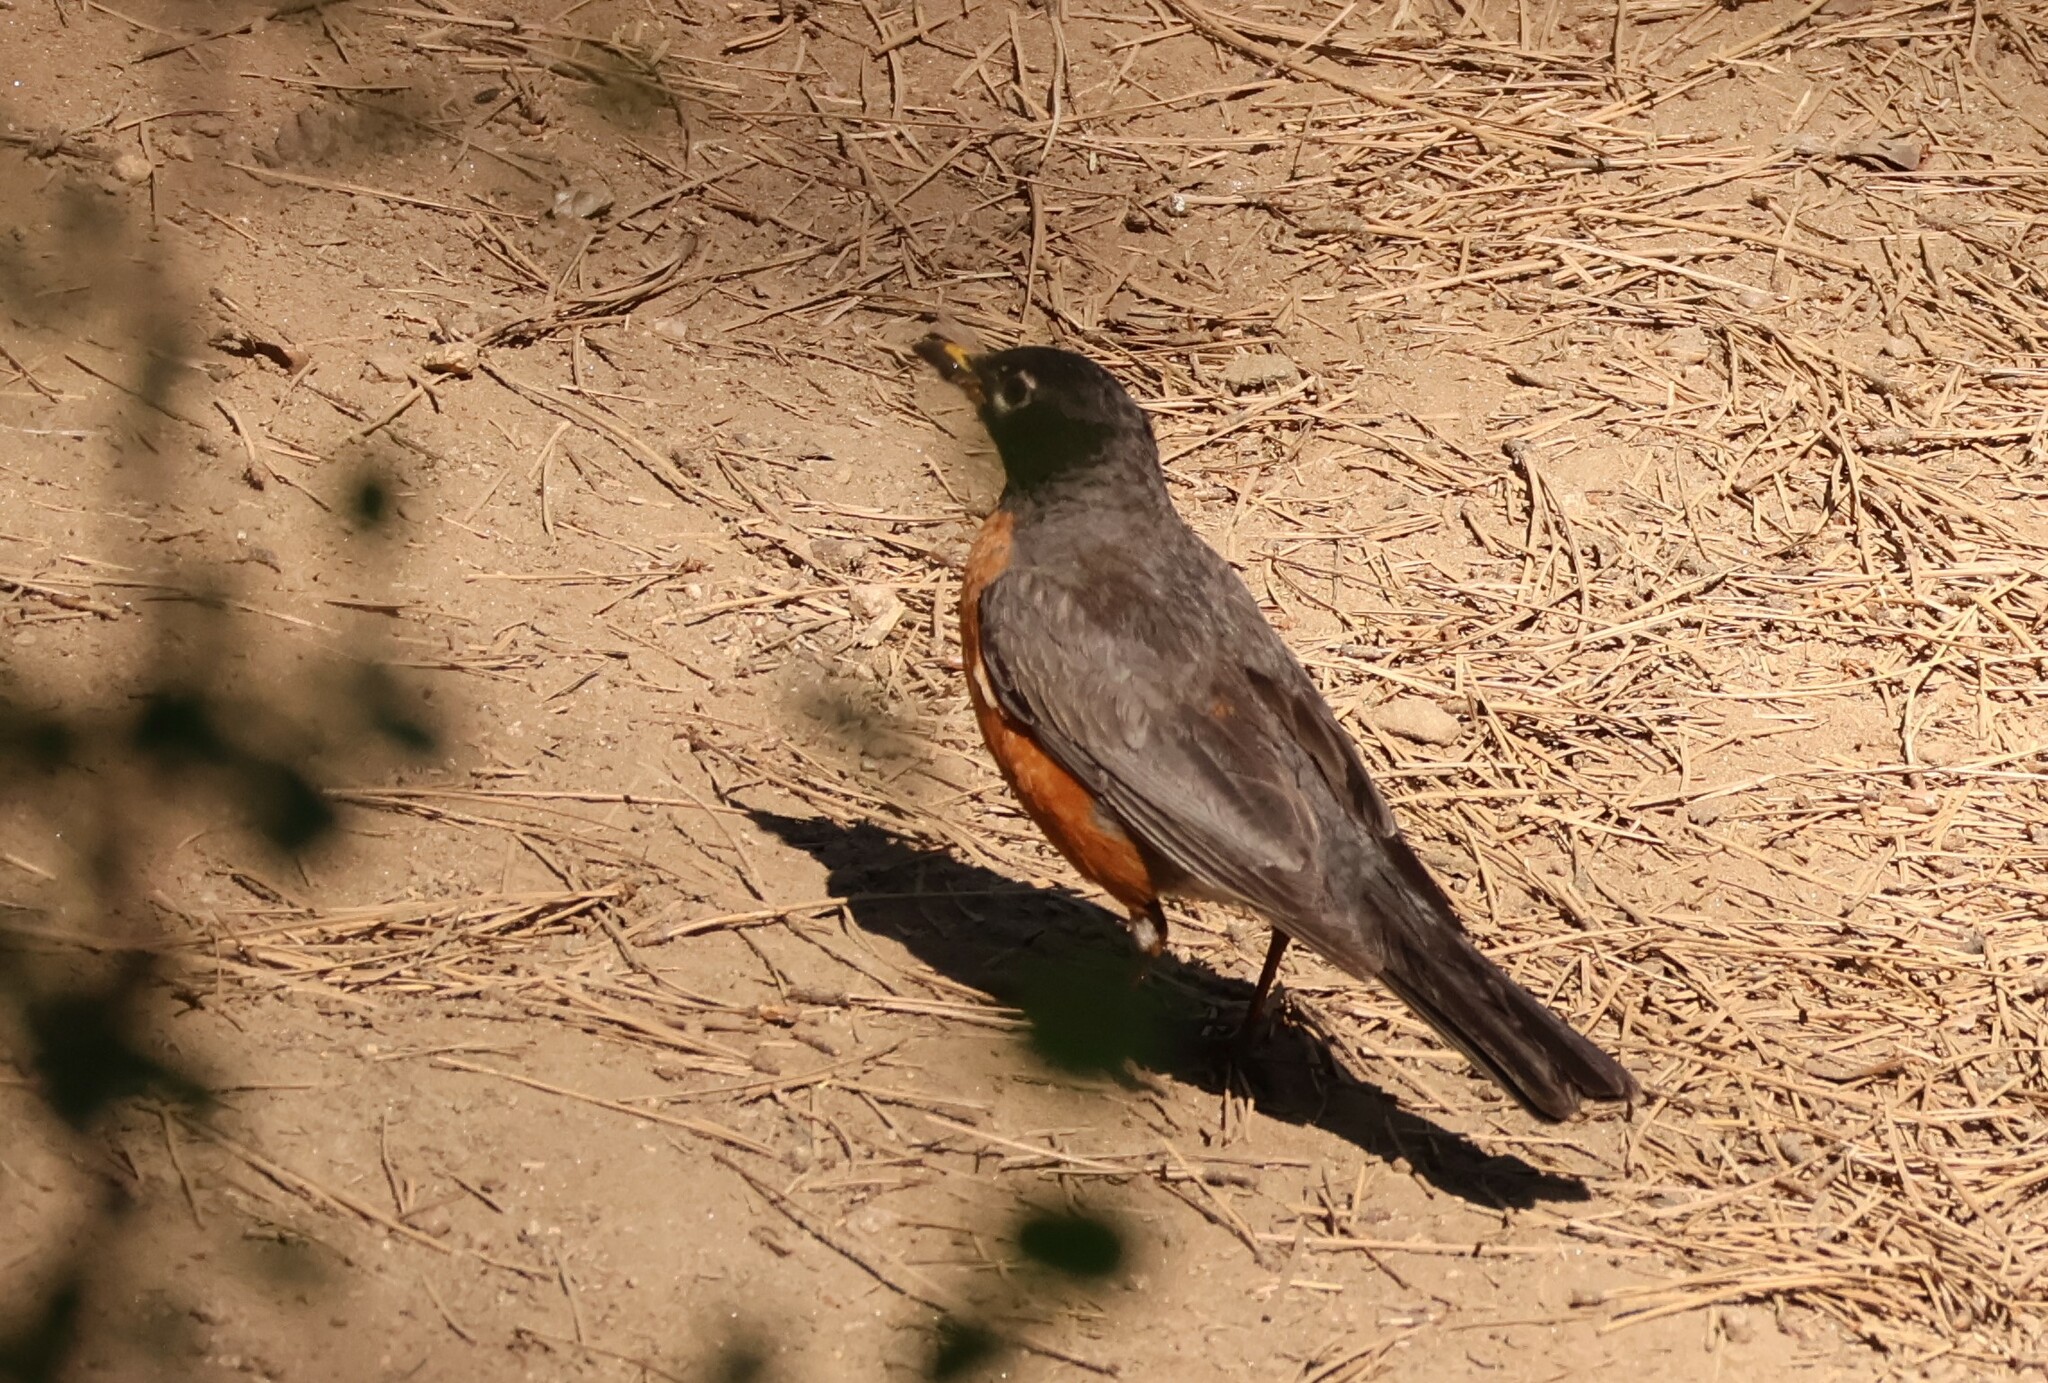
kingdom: Animalia
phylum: Chordata
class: Aves
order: Passeriformes
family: Turdidae
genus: Turdus
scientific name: Turdus migratorius
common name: American robin
